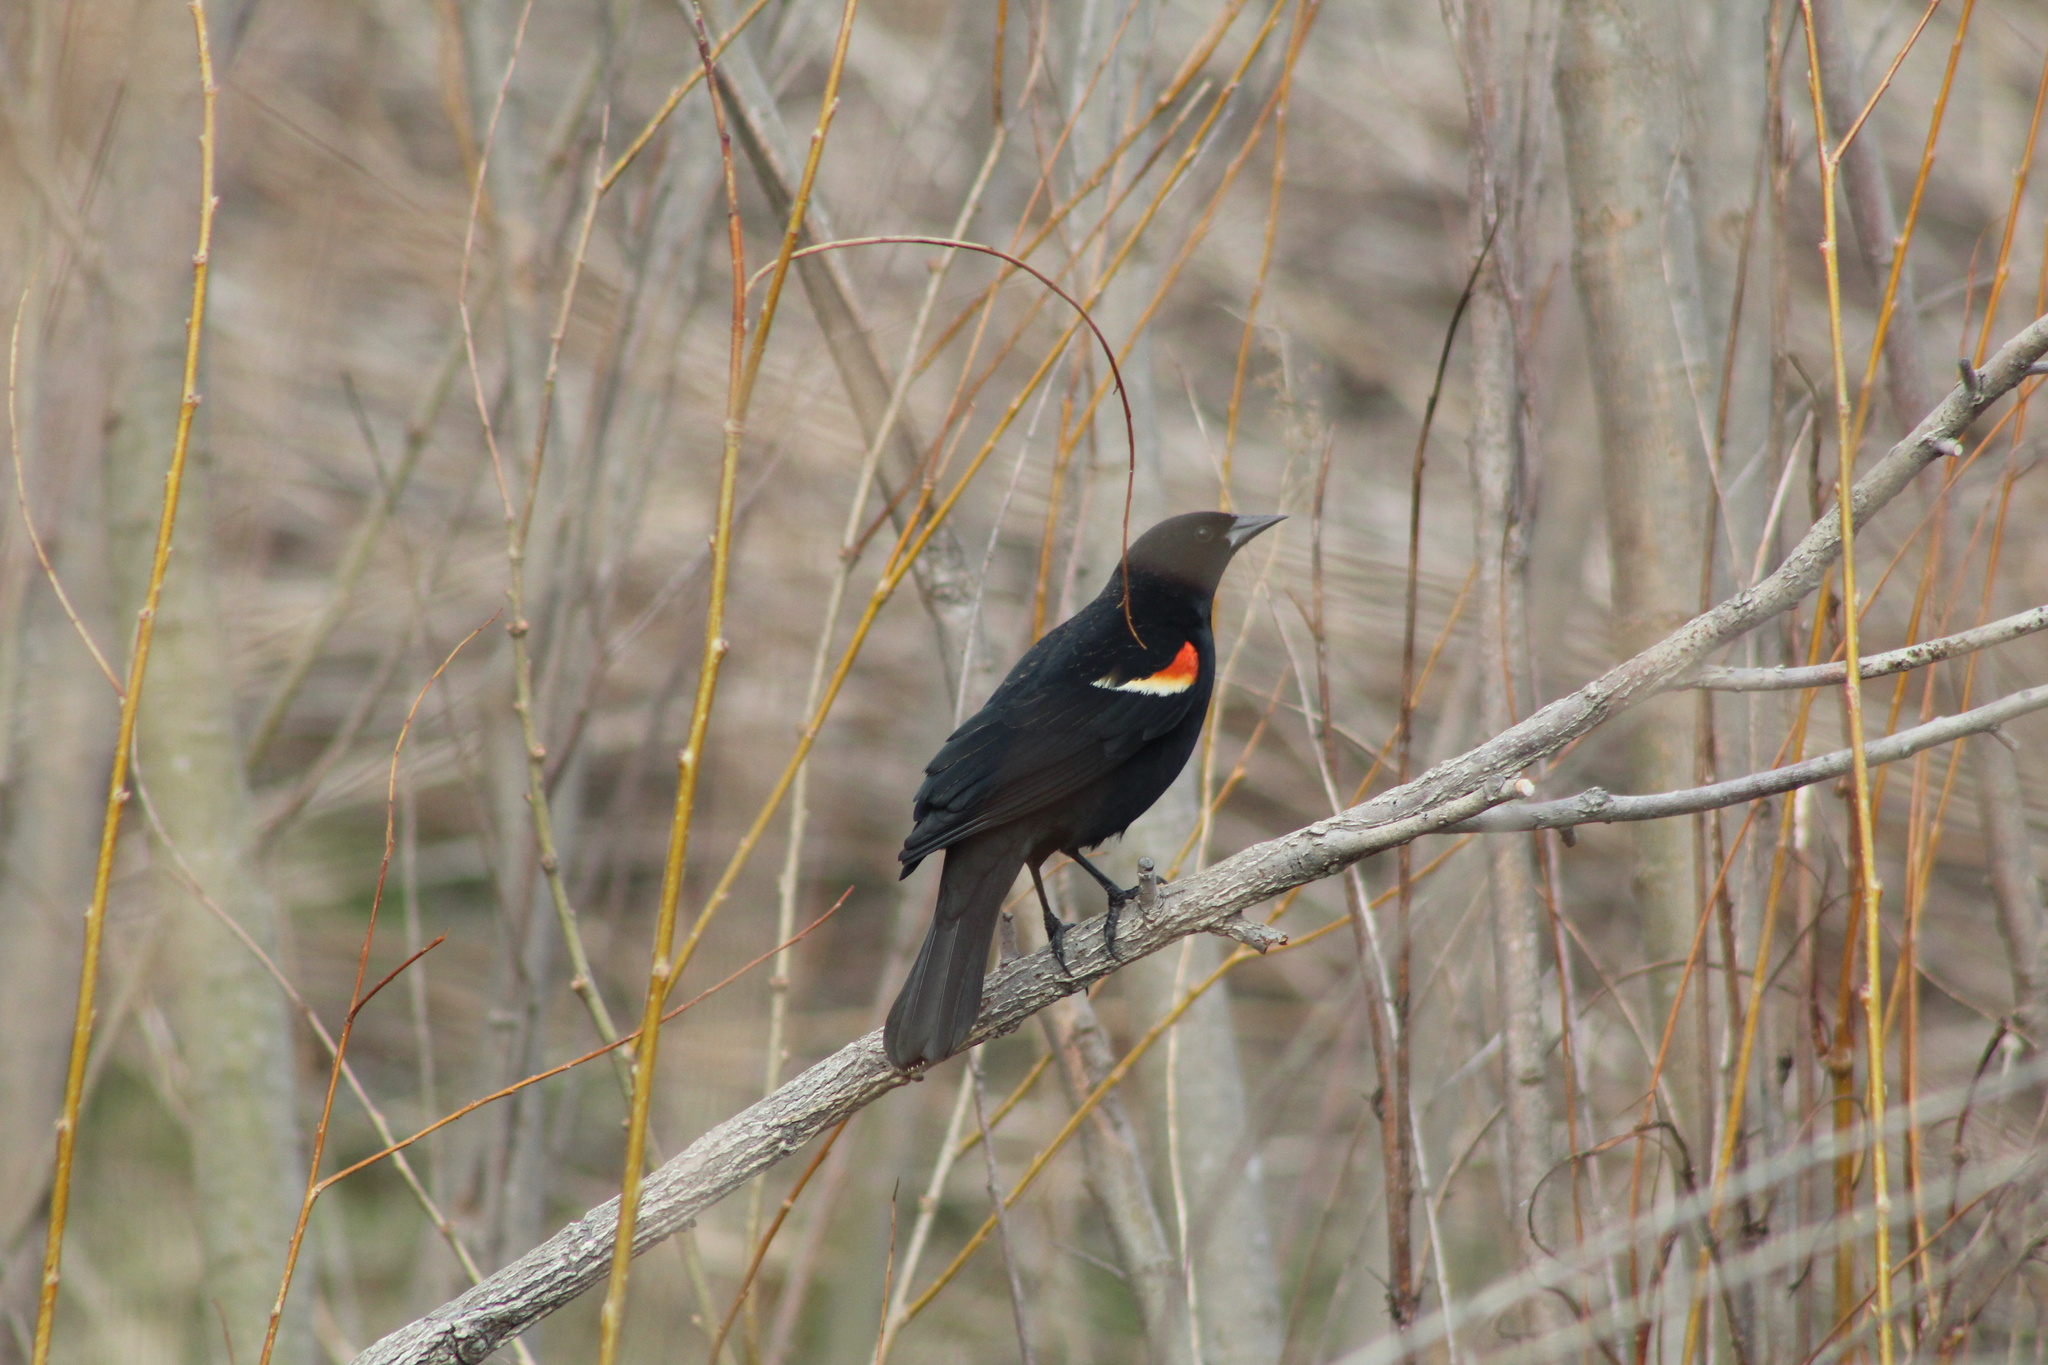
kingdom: Animalia
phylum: Chordata
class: Aves
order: Passeriformes
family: Icteridae
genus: Agelaius
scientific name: Agelaius phoeniceus
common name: Red-winged blackbird
